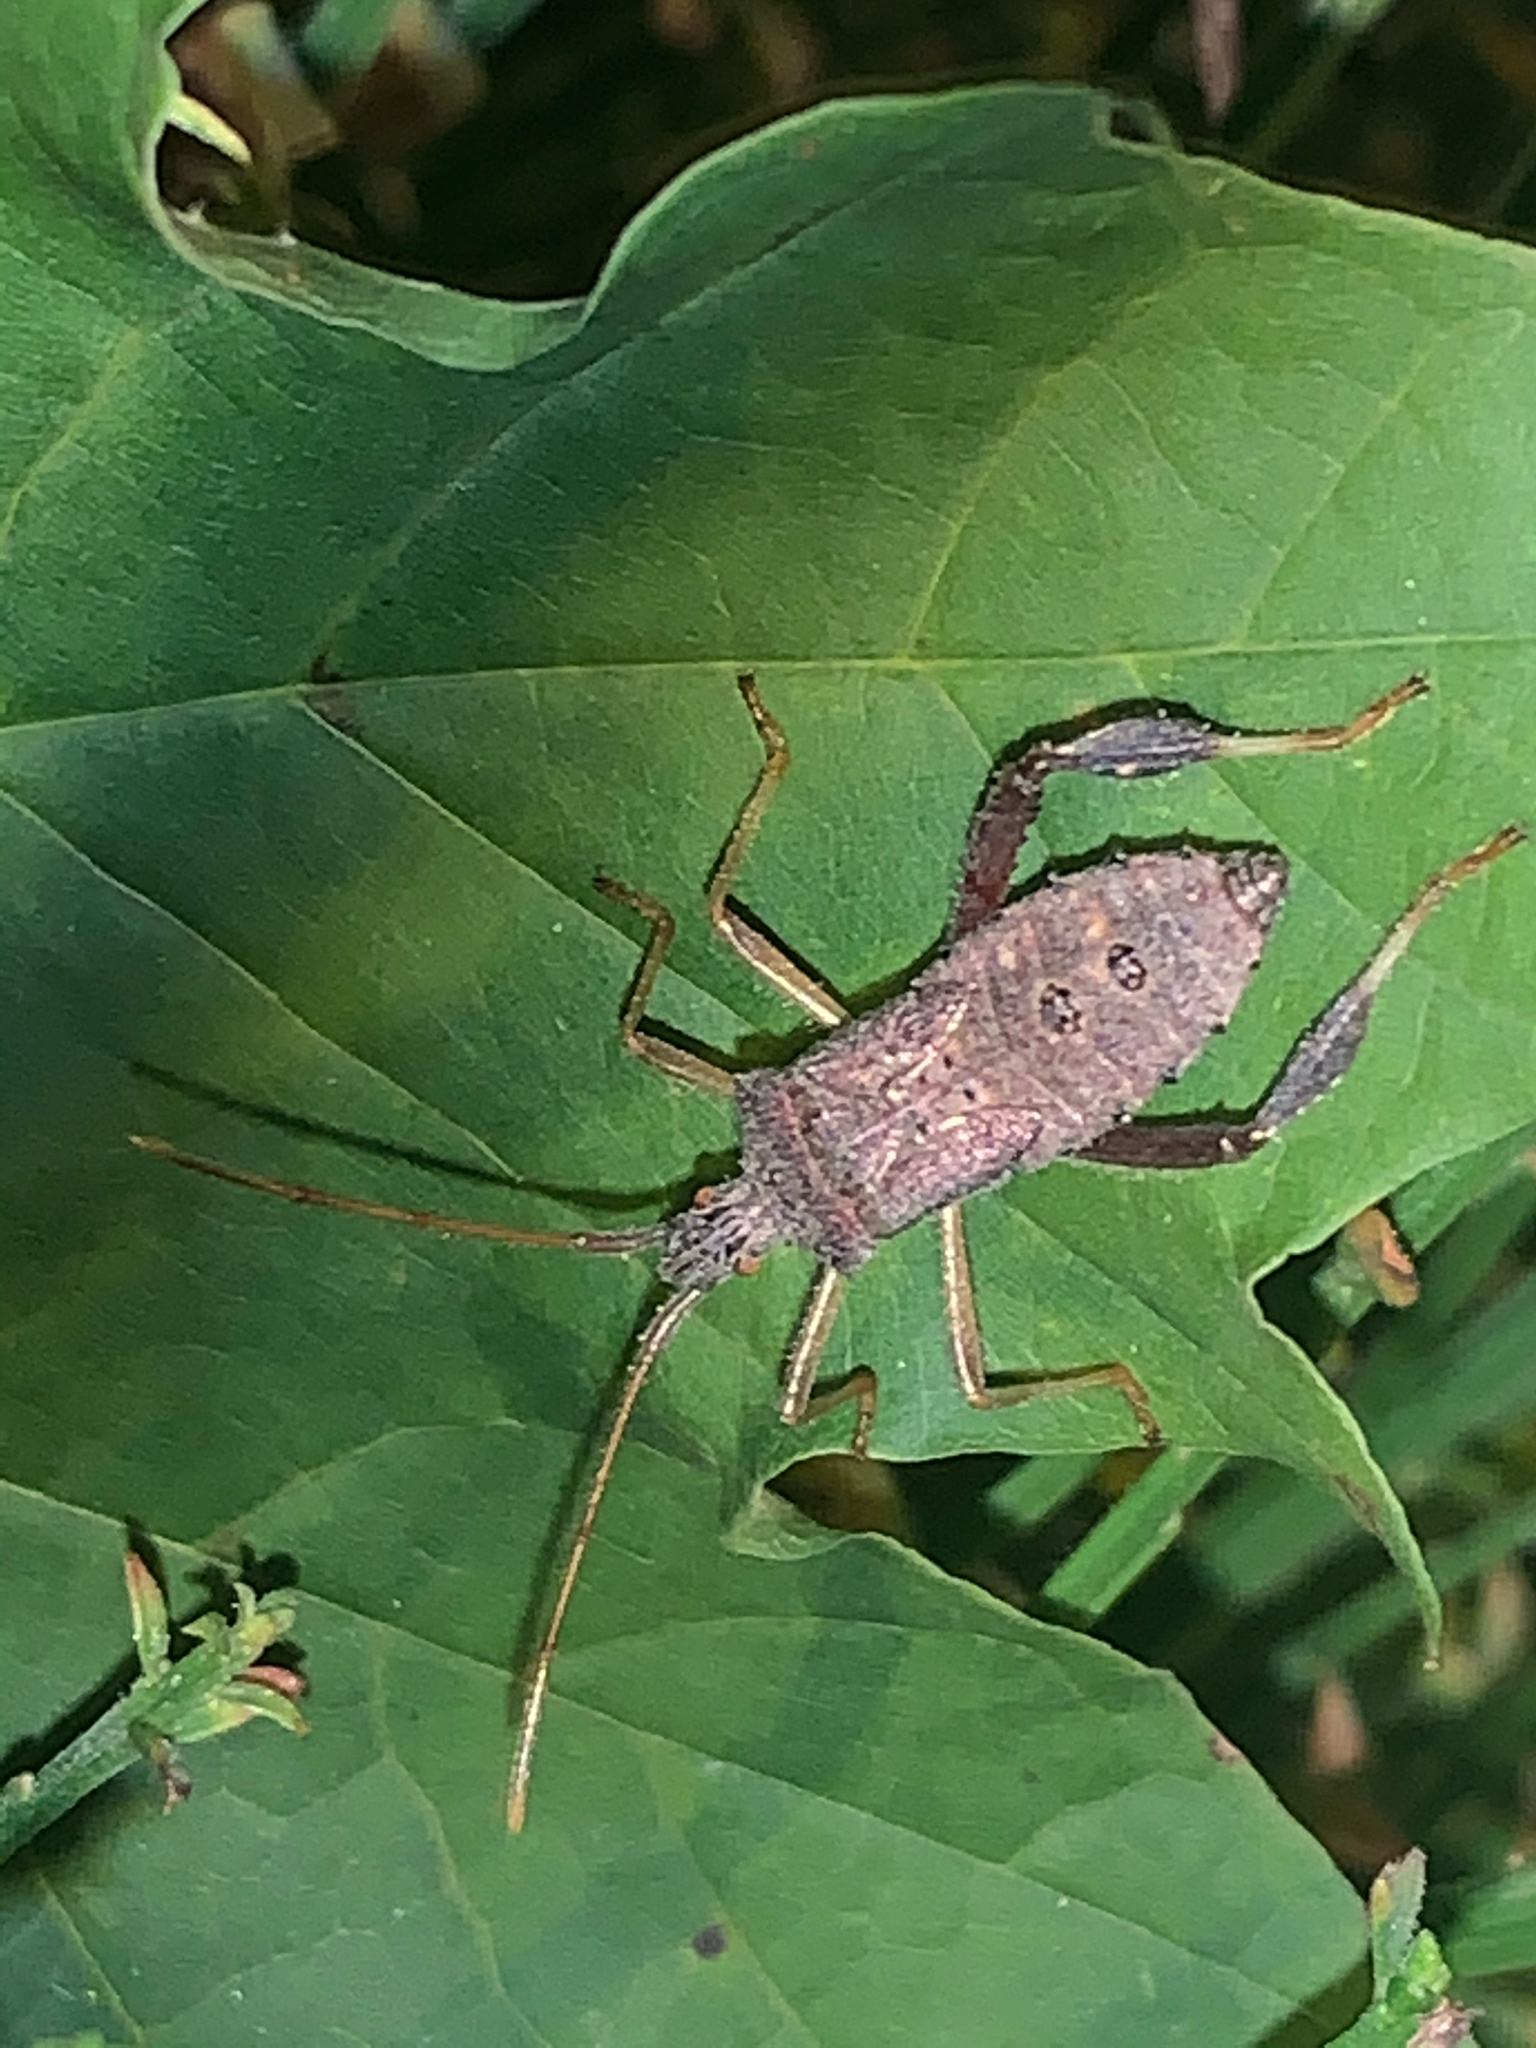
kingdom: Animalia
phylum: Arthropoda
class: Insecta
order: Hemiptera
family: Coreidae
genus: Leptoglossus
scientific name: Leptoglossus fulvicornis
